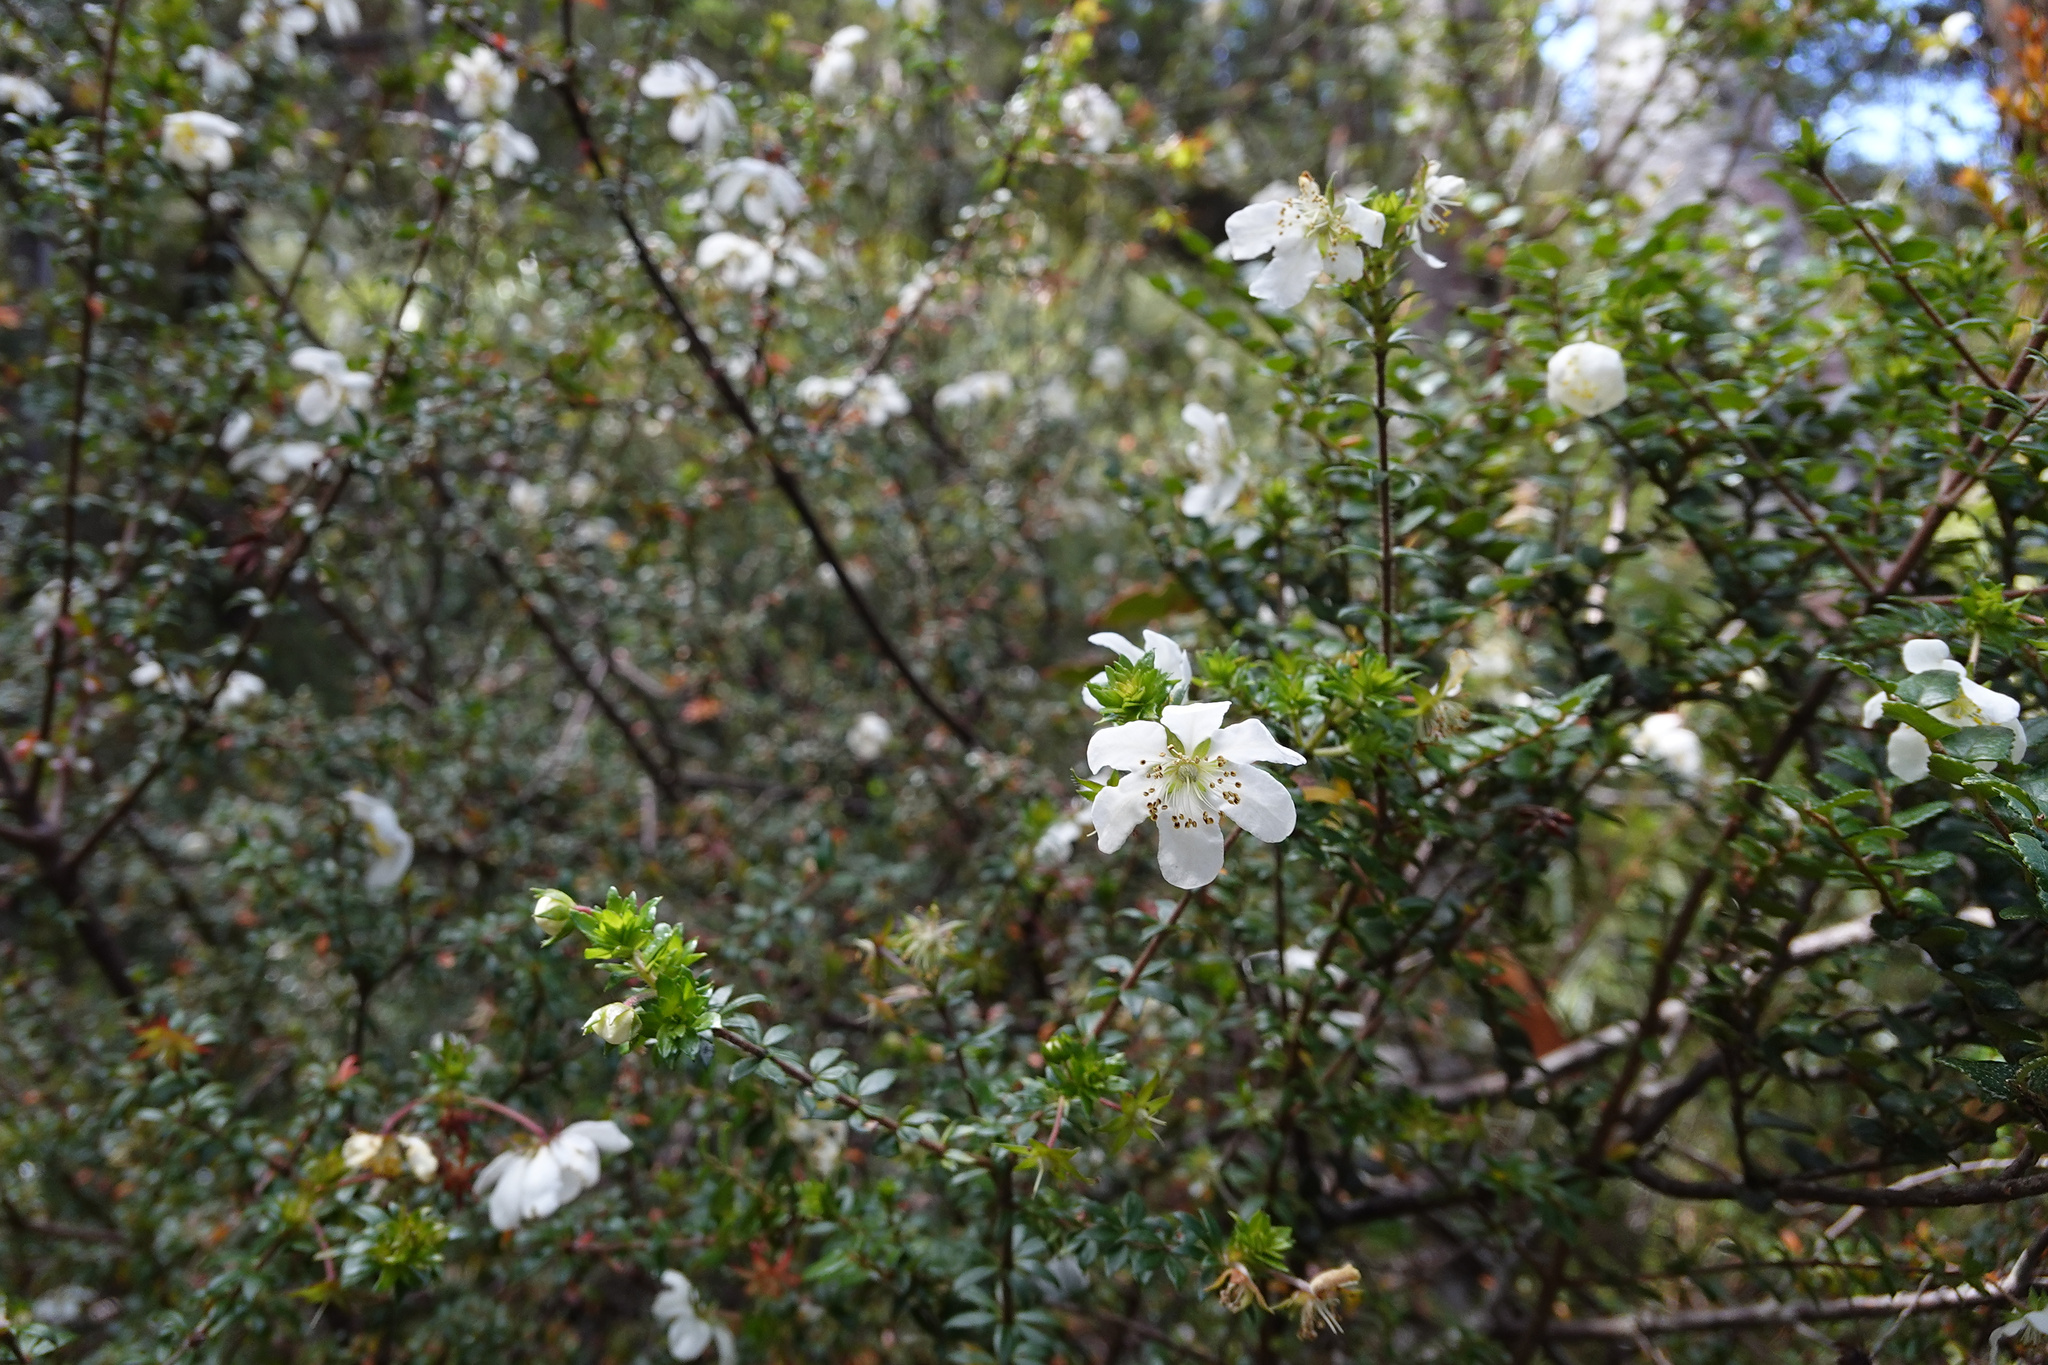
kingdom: Plantae
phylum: Tracheophyta
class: Magnoliopsida
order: Oxalidales
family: Cunoniaceae
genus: Bauera
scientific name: Bauera rubioides
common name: River-rose
